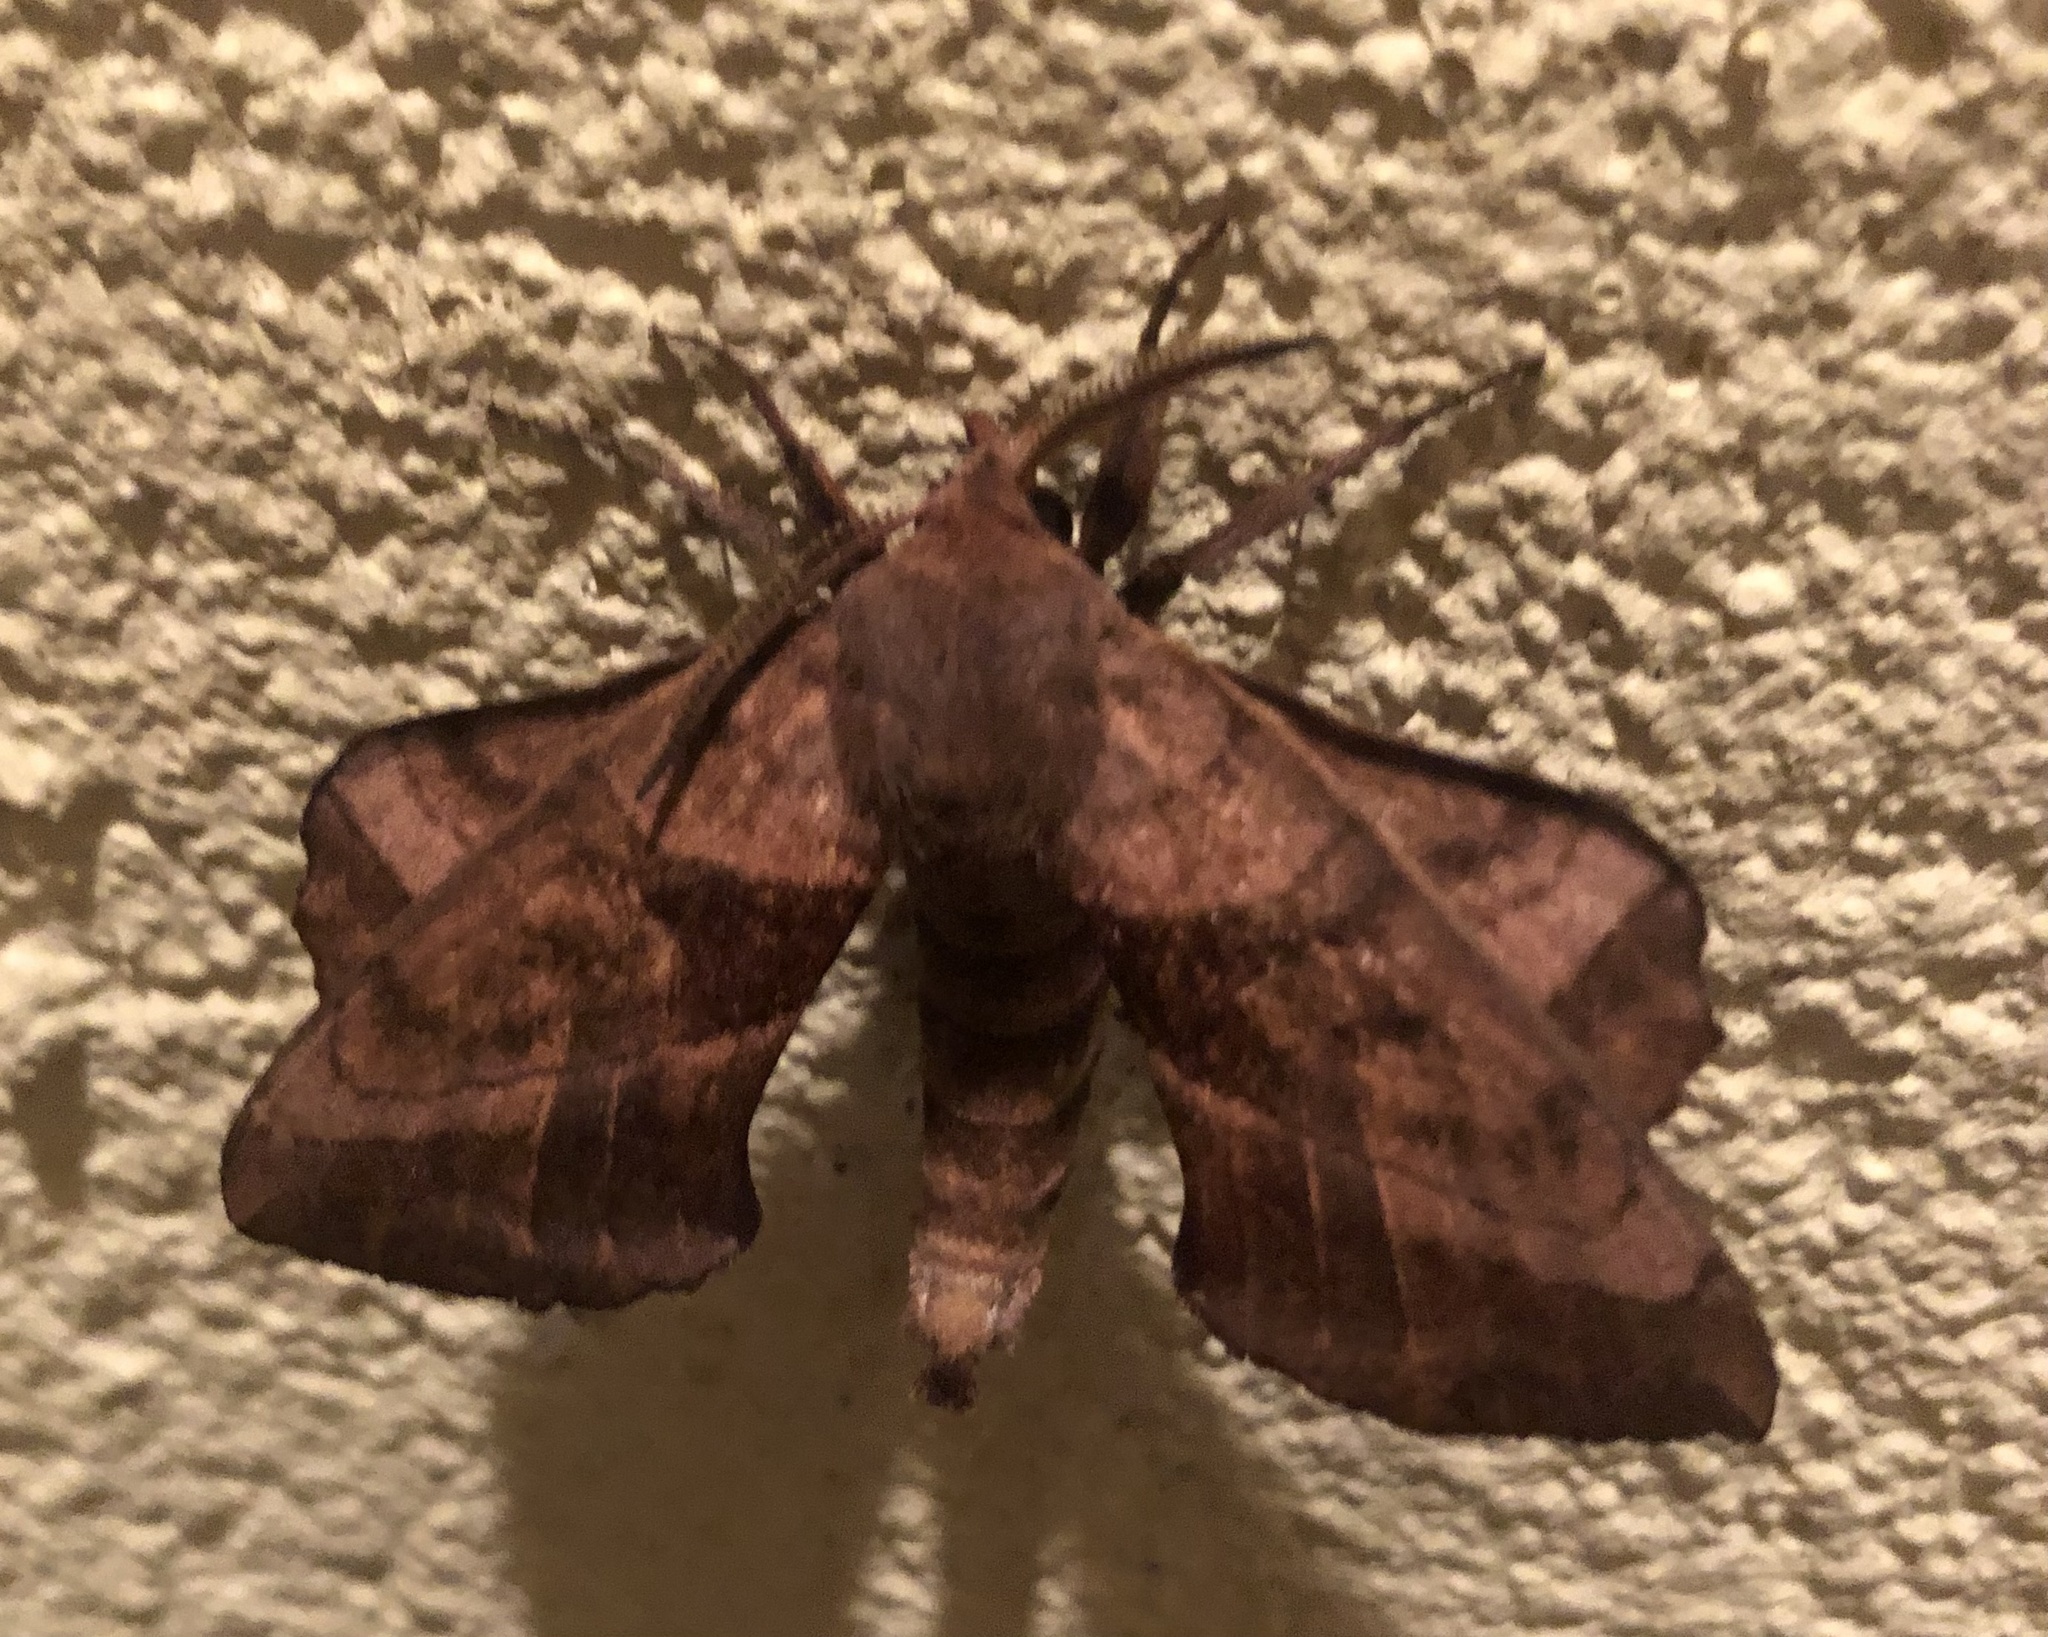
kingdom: Animalia
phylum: Arthropoda
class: Insecta
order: Lepidoptera
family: Sphingidae
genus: Amorpha
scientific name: Amorpha juglandis
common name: Walnut sphinx
